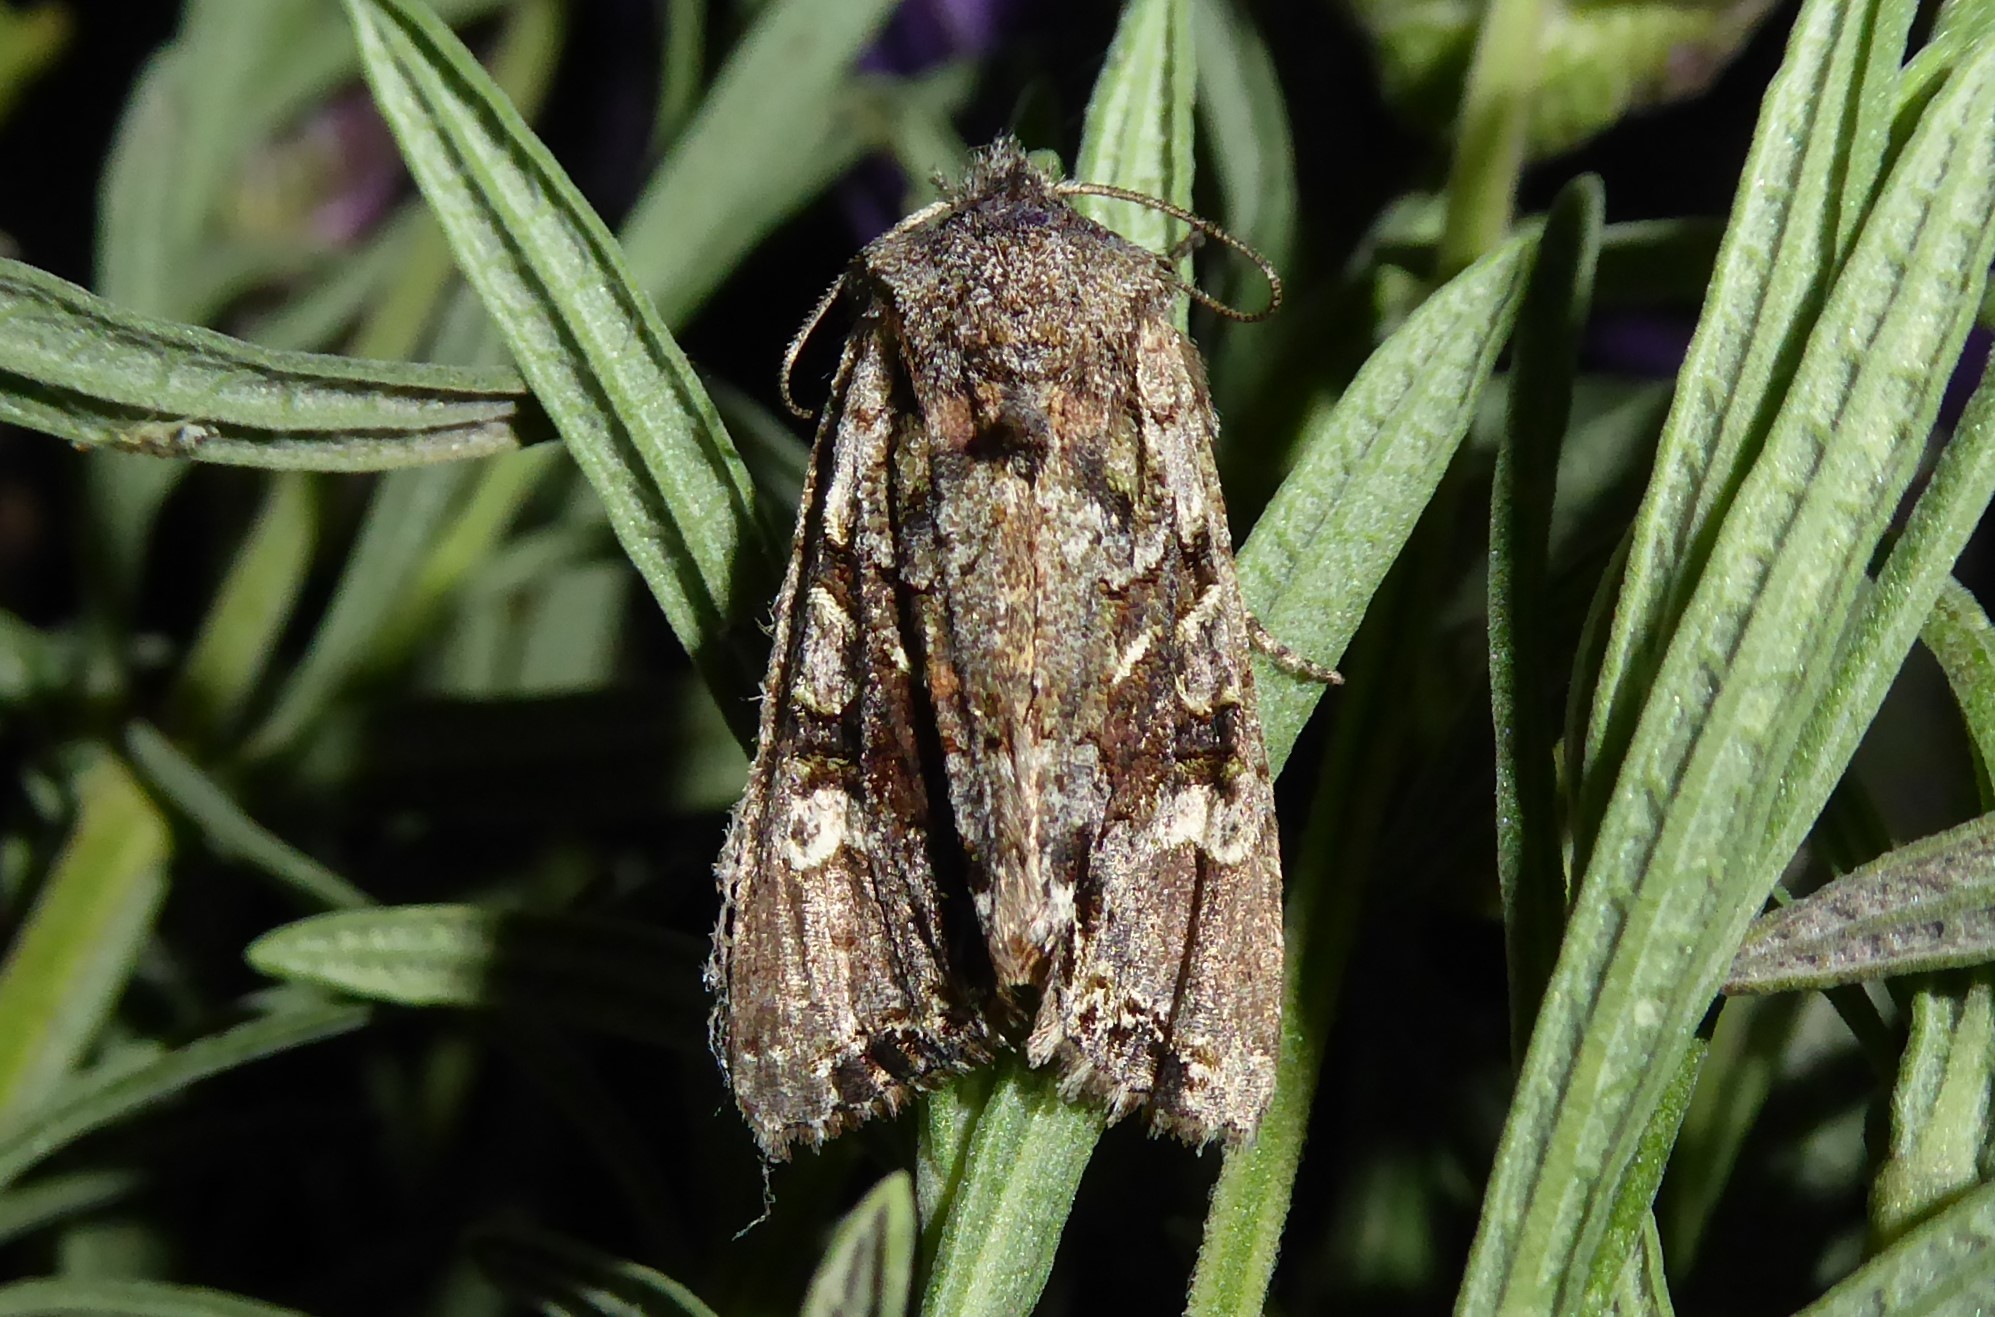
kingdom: Animalia
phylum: Arthropoda
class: Insecta
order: Lepidoptera
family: Noctuidae
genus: Ichneutica
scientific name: Ichneutica mutans
